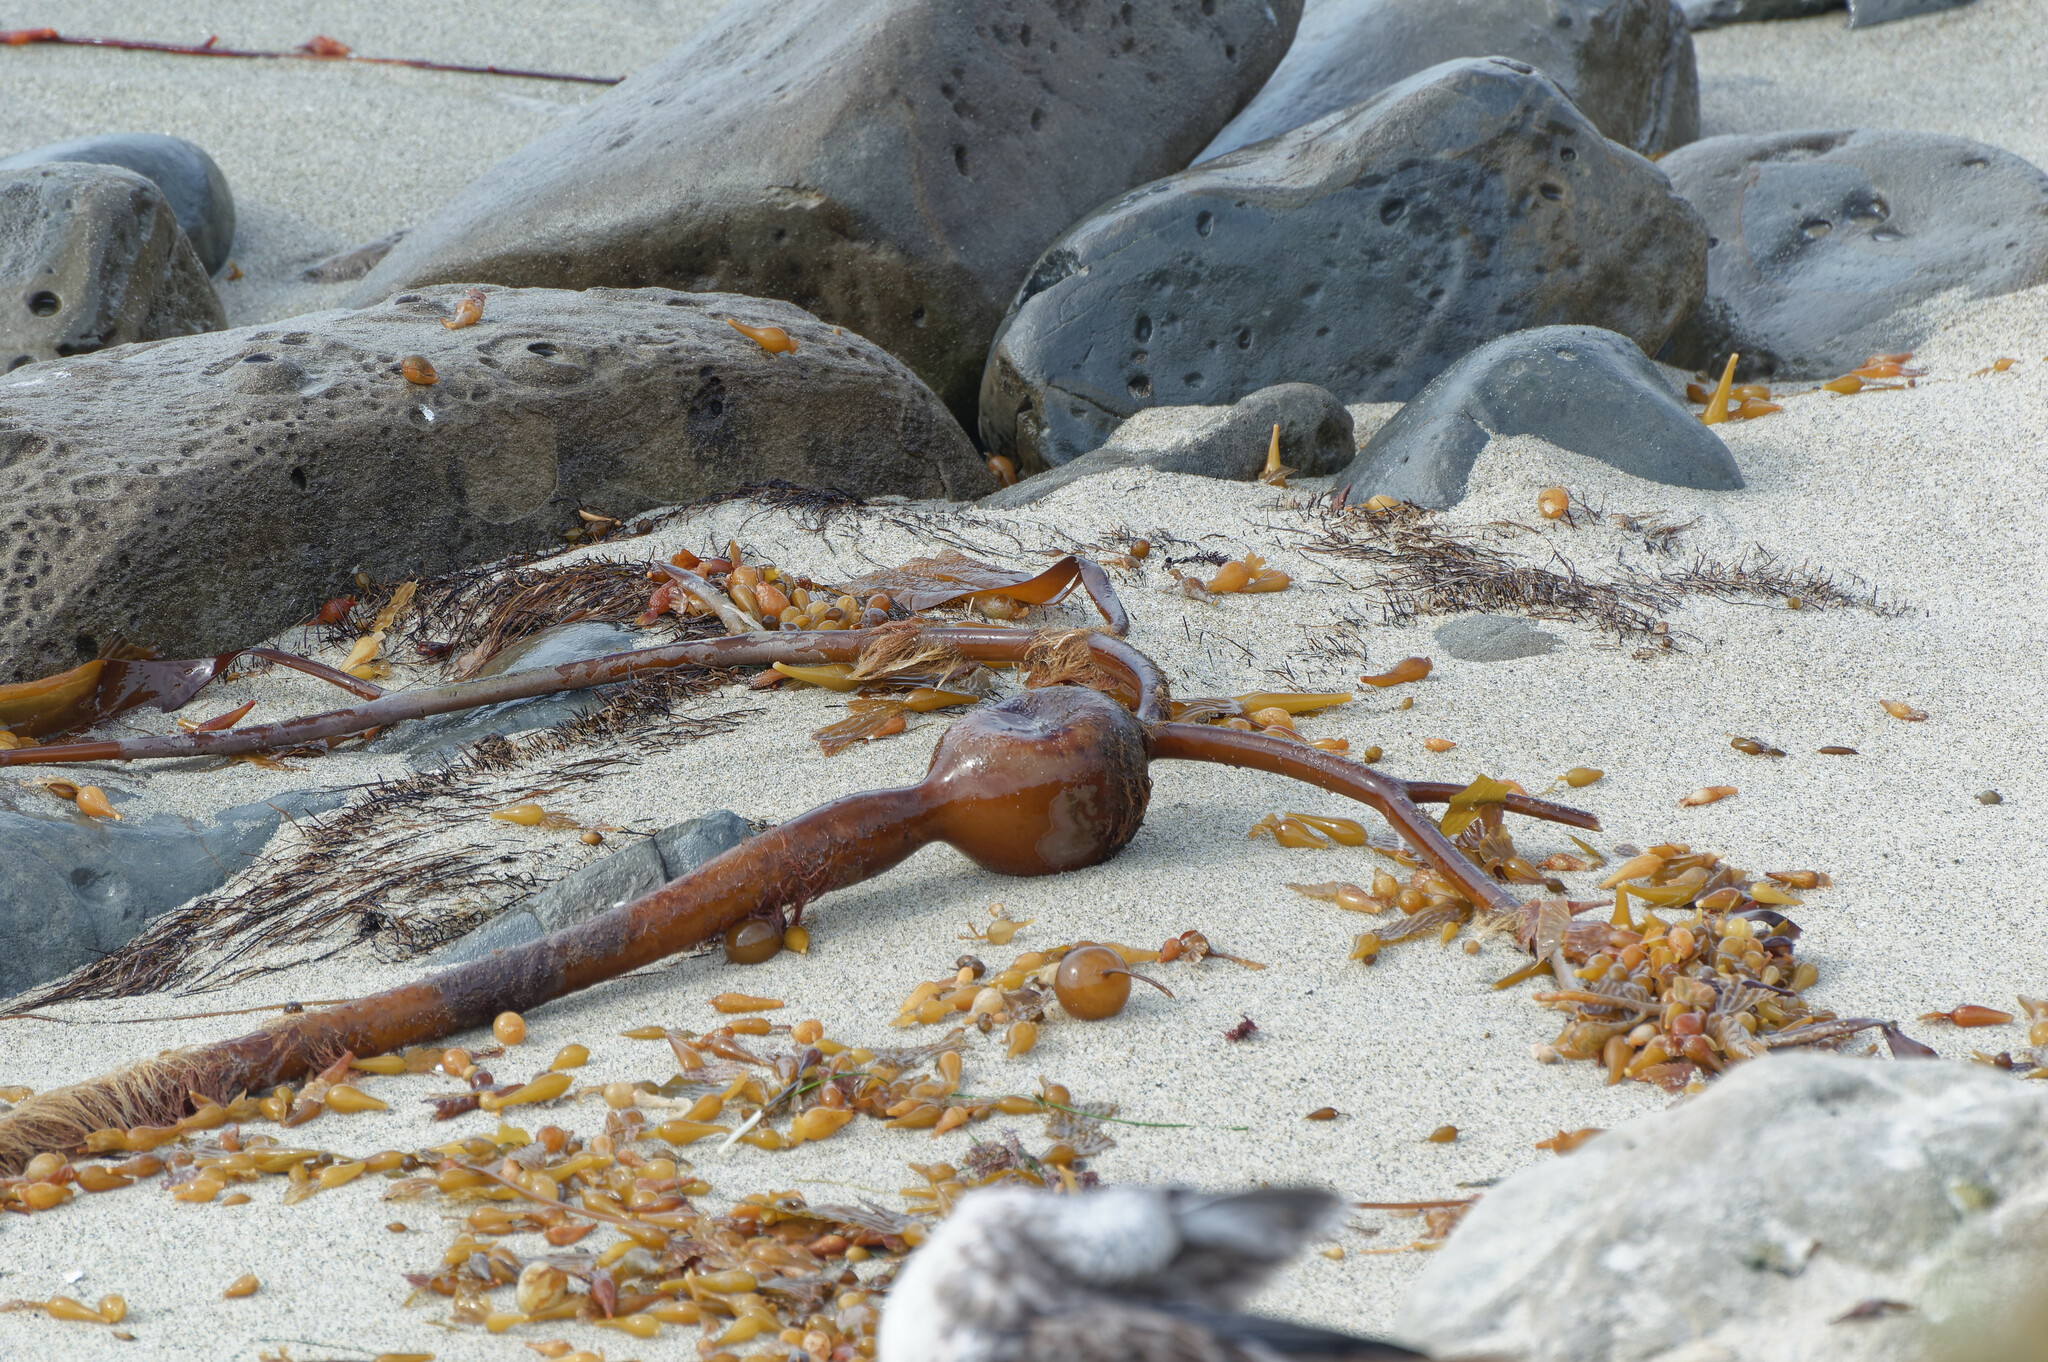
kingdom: Chromista
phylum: Ochrophyta
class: Phaeophyceae
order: Laminariales
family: Laminariaceae
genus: Pelagophycus
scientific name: Pelagophycus porra
